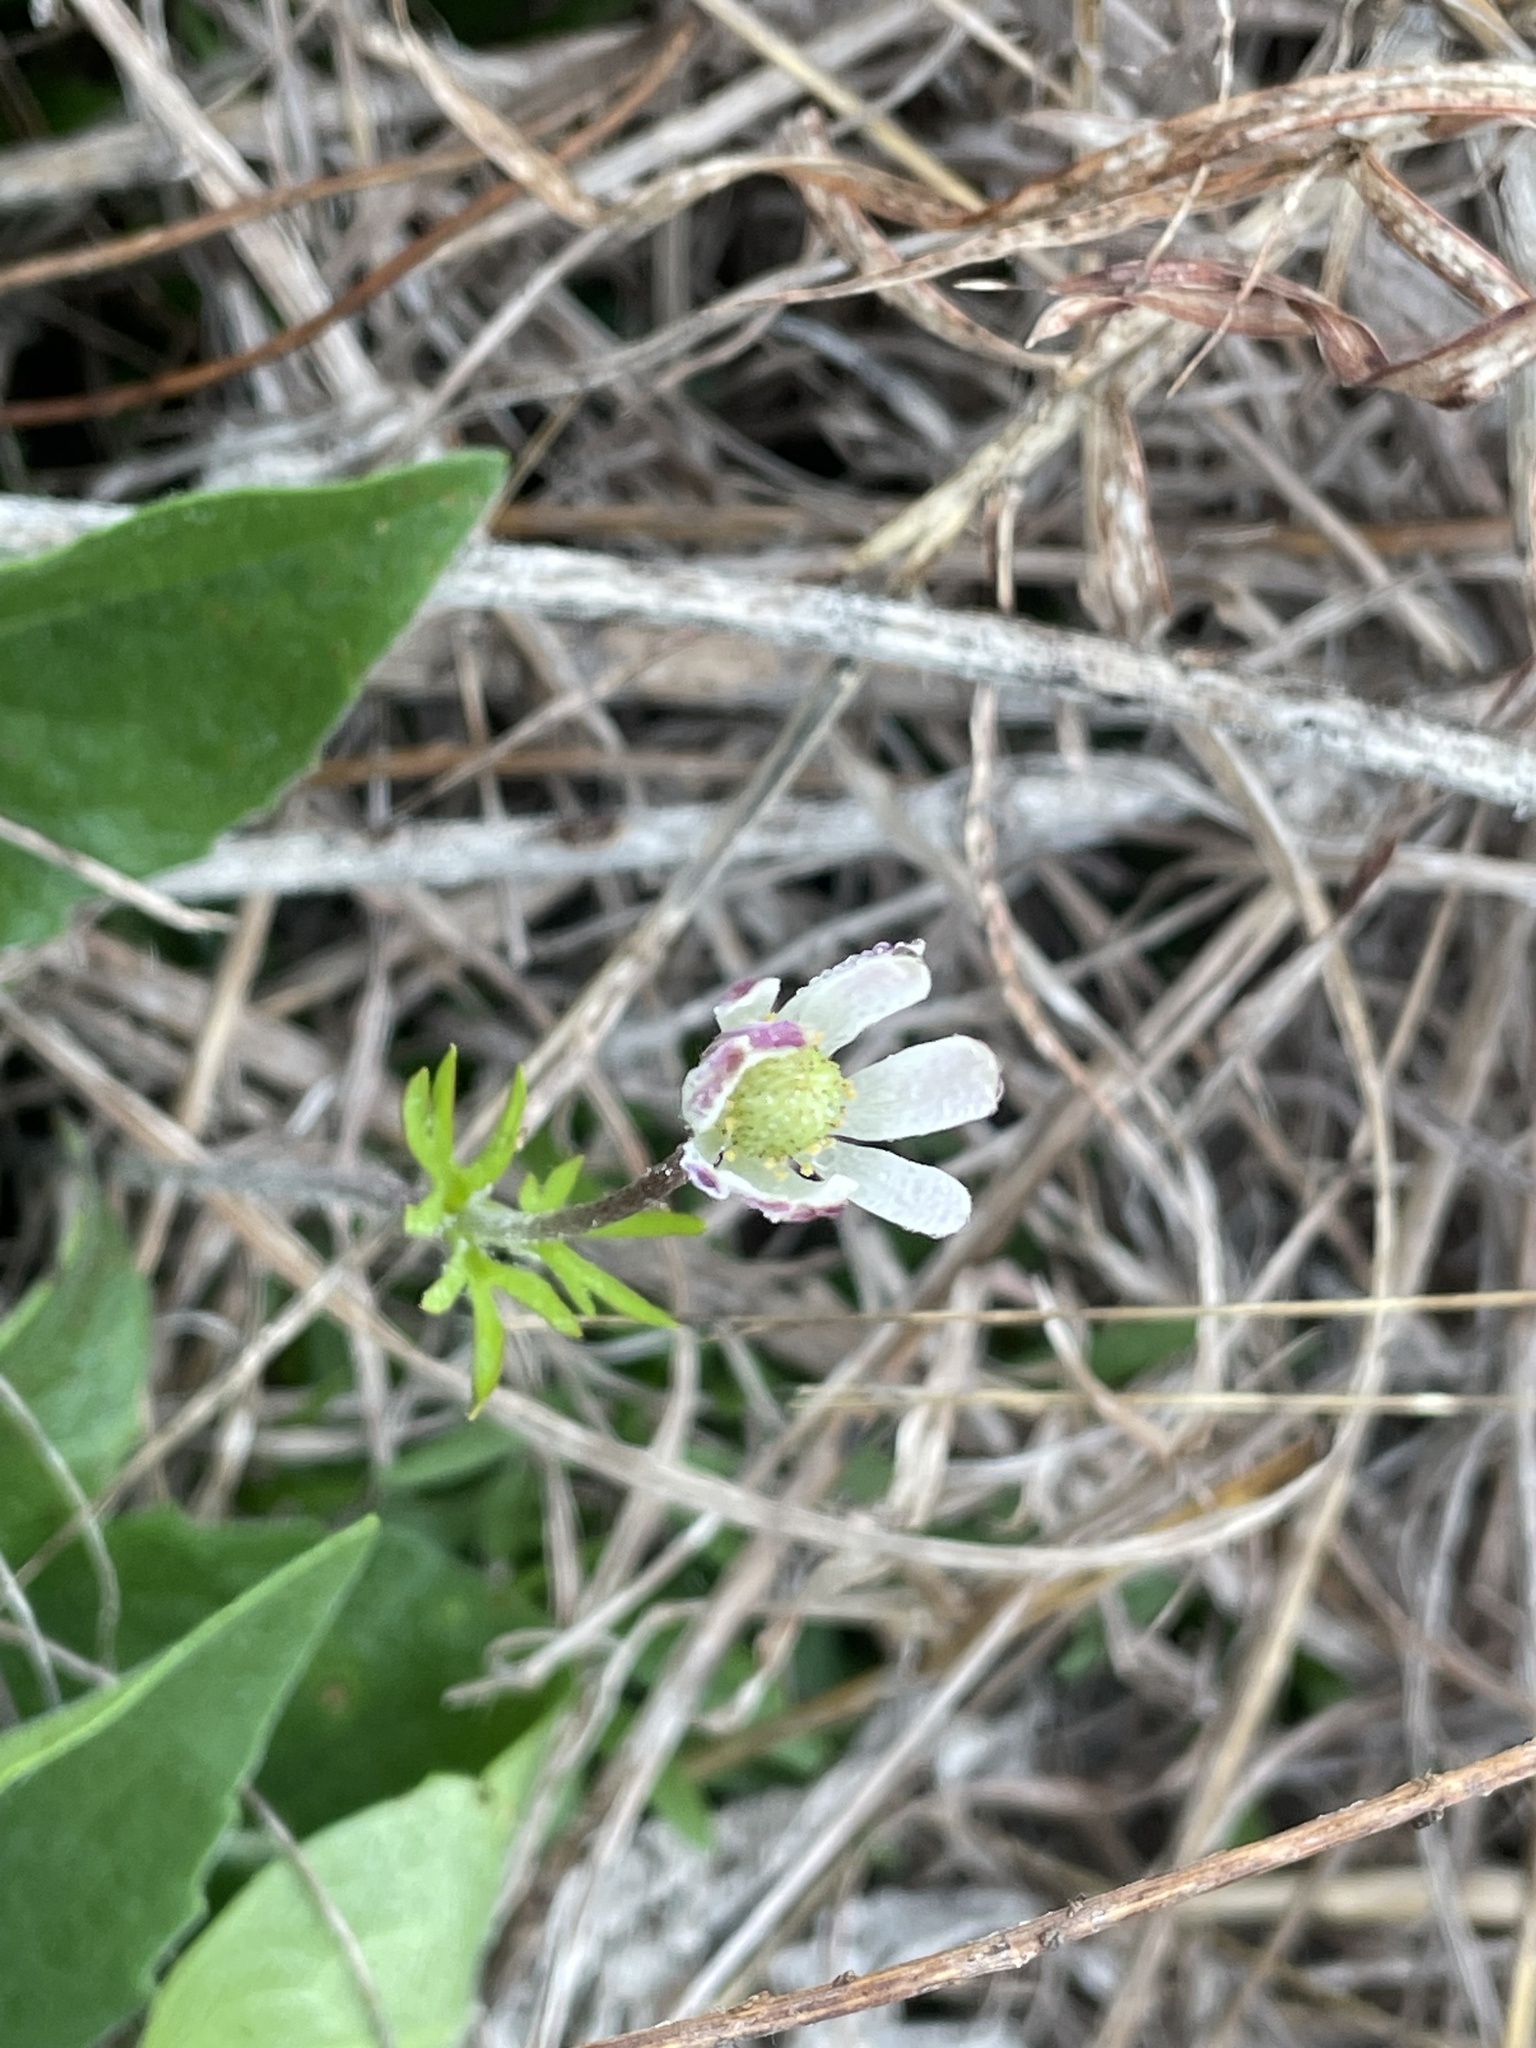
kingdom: Plantae
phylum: Tracheophyta
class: Magnoliopsida
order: Ranunculales
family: Ranunculaceae
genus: Anemone
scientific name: Anemone berlandieri
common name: Ten-petal anemone
